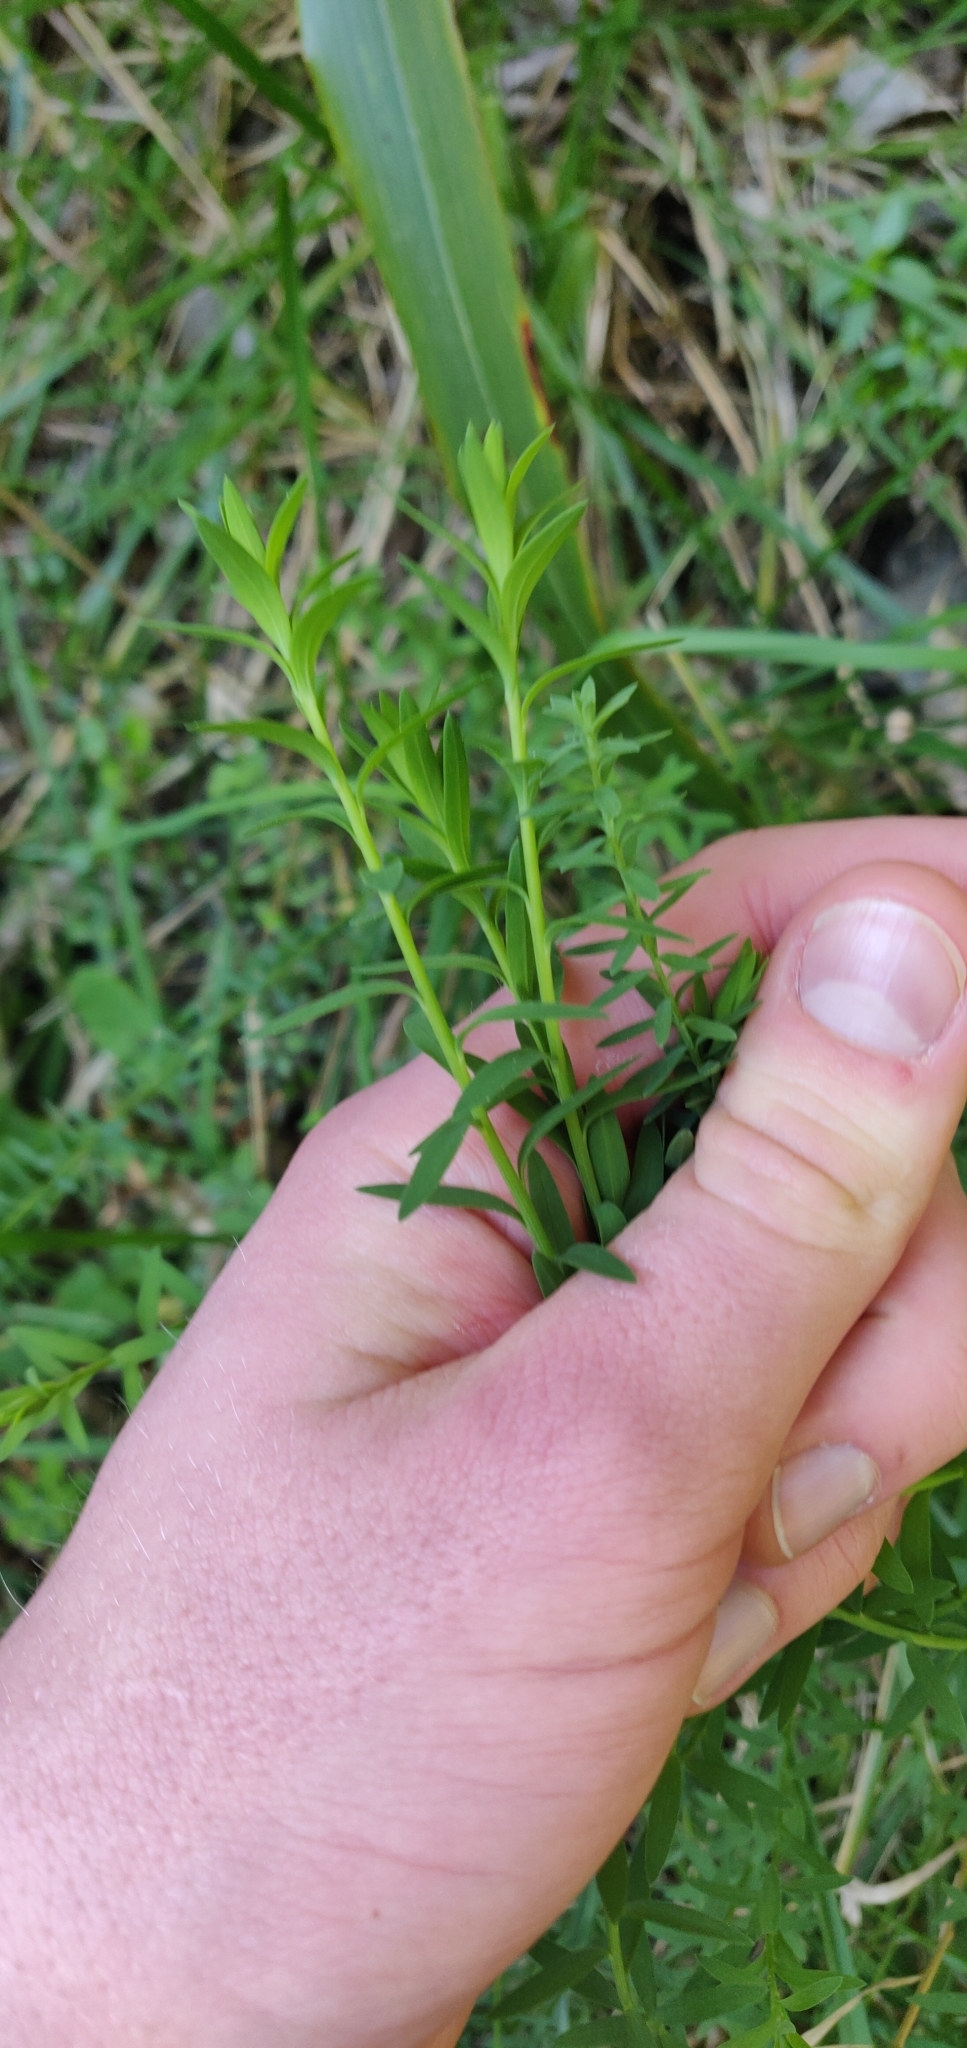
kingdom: Plantae
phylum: Tracheophyta
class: Magnoliopsida
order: Malpighiales
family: Linaceae
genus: Linum
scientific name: Linum monogynum
